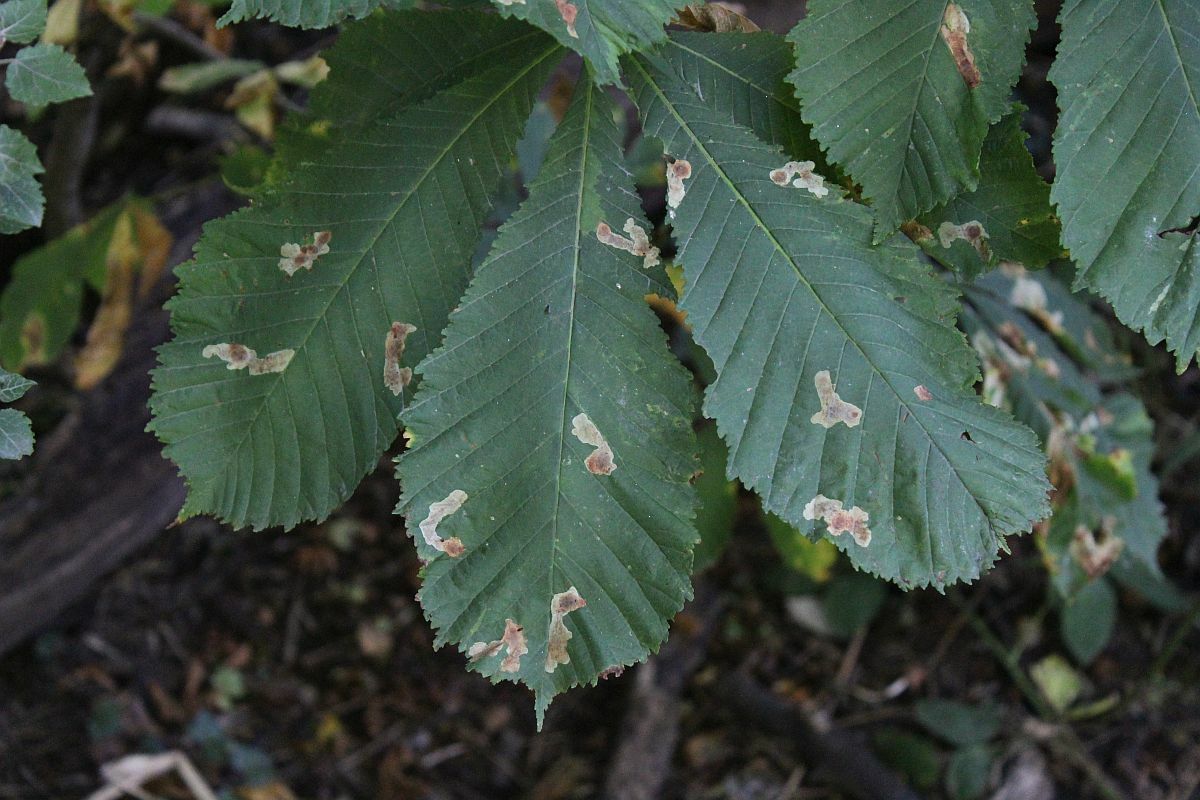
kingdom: Animalia
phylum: Arthropoda
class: Insecta
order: Lepidoptera
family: Gracillariidae
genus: Cameraria
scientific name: Cameraria ohridella
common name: Horse-chestnut leaf-miner
